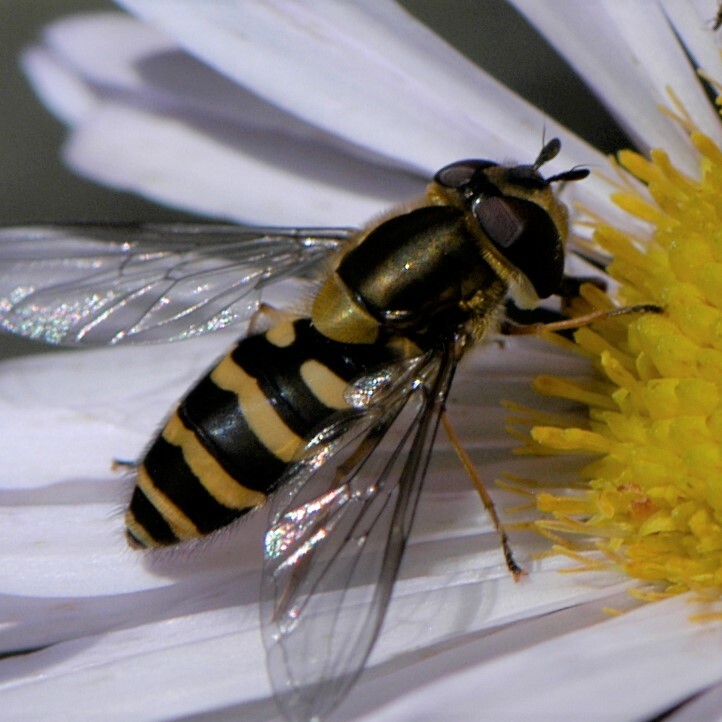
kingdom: Animalia
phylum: Arthropoda
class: Insecta
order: Diptera
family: Syrphidae
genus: Syrphus
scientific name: Syrphus torvus
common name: Hairy-eyed flower fly
